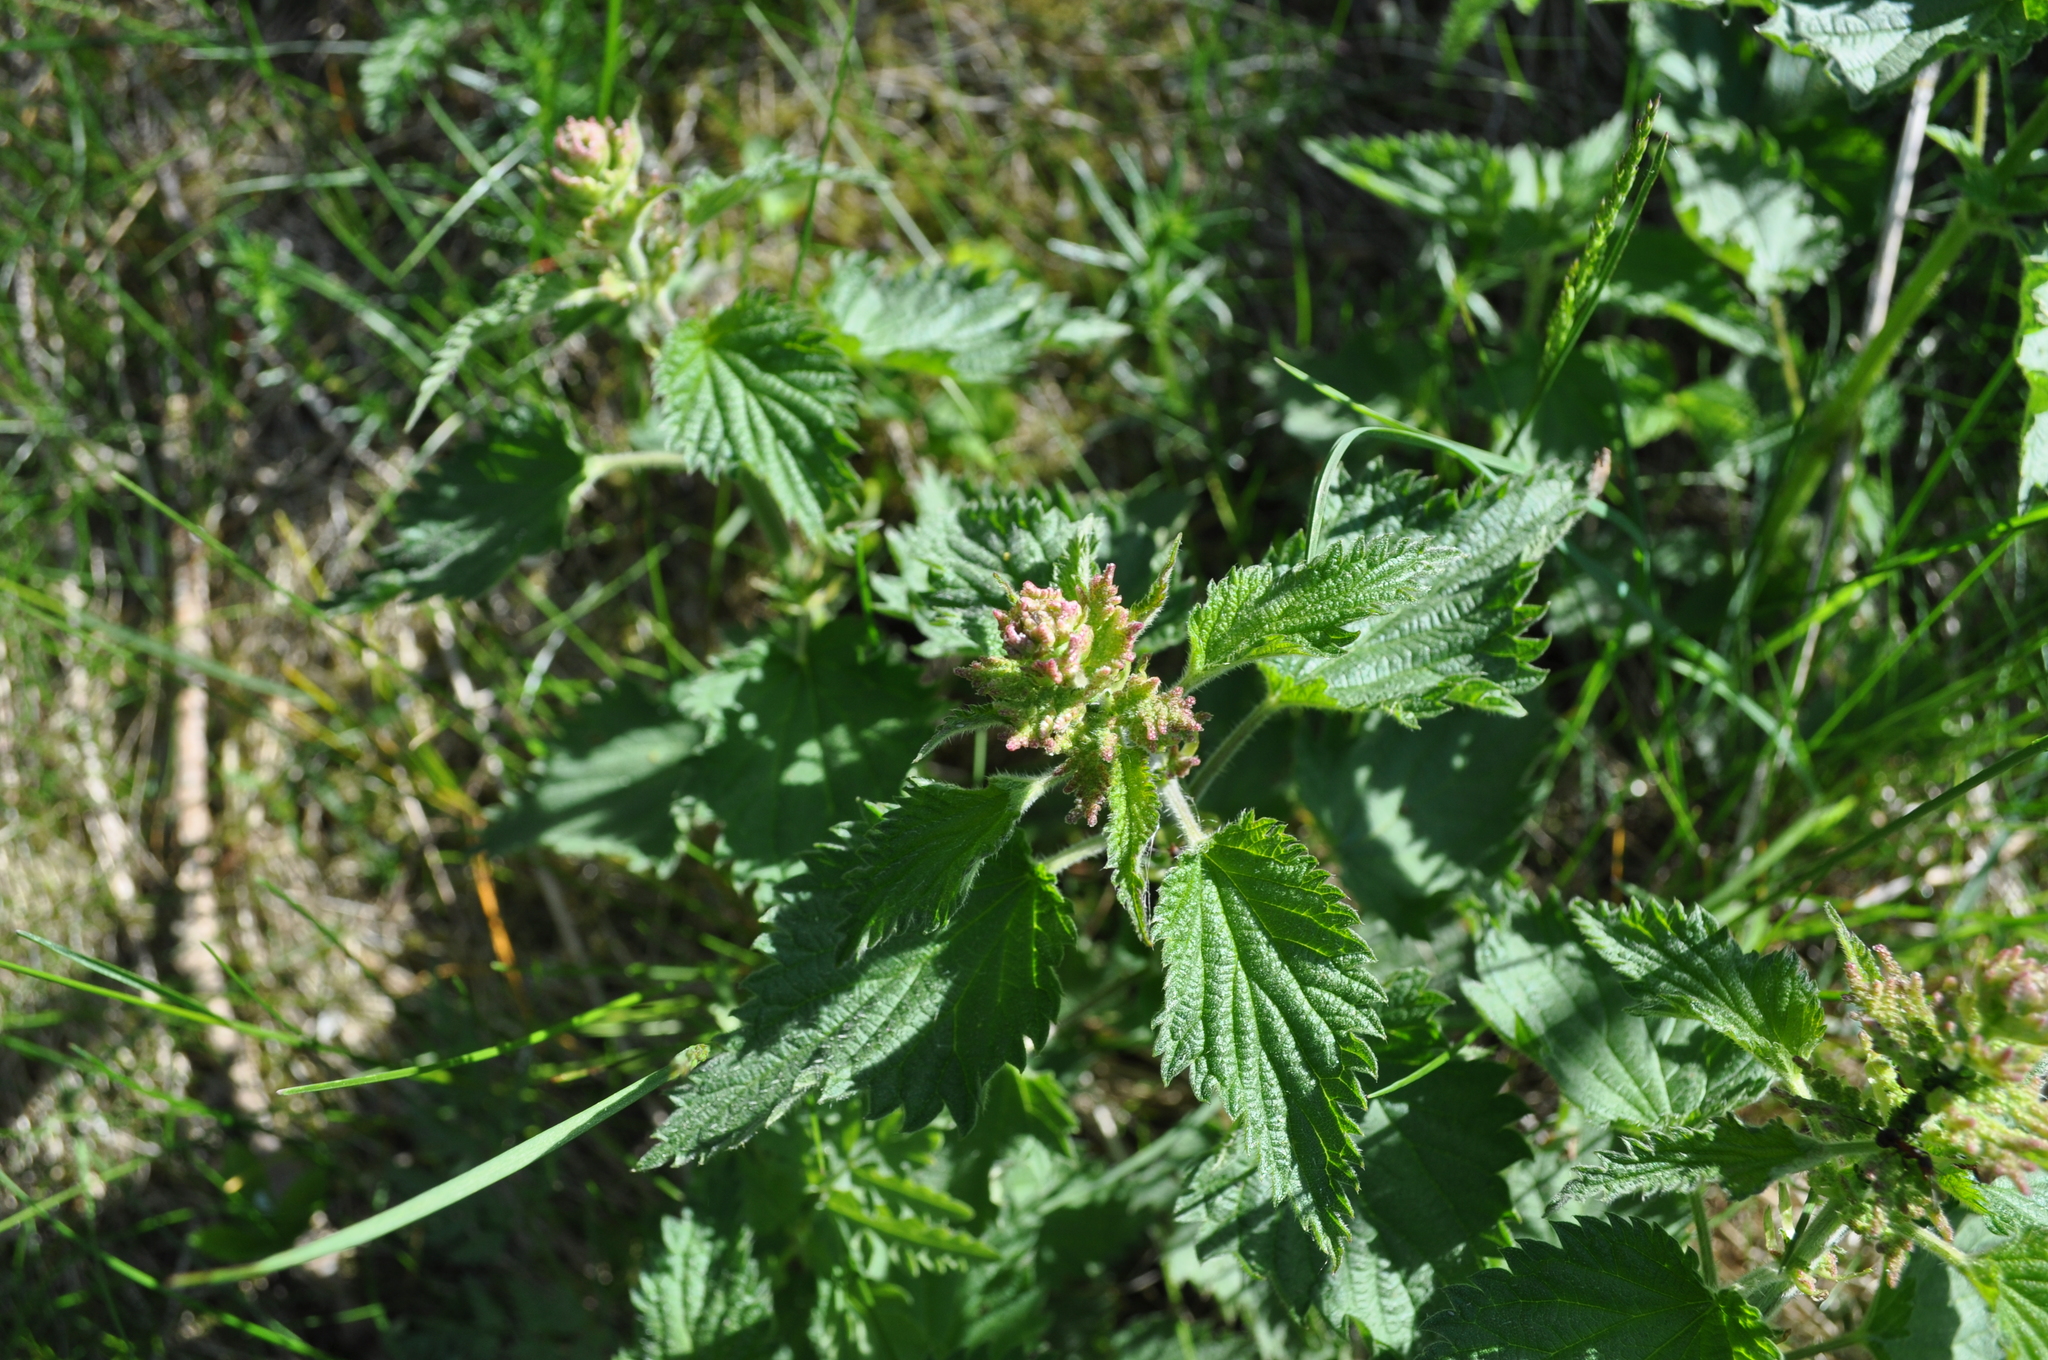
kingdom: Plantae
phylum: Tracheophyta
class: Magnoliopsida
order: Rosales
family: Urticaceae
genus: Urtica
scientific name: Urtica dioica
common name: Common nettle
